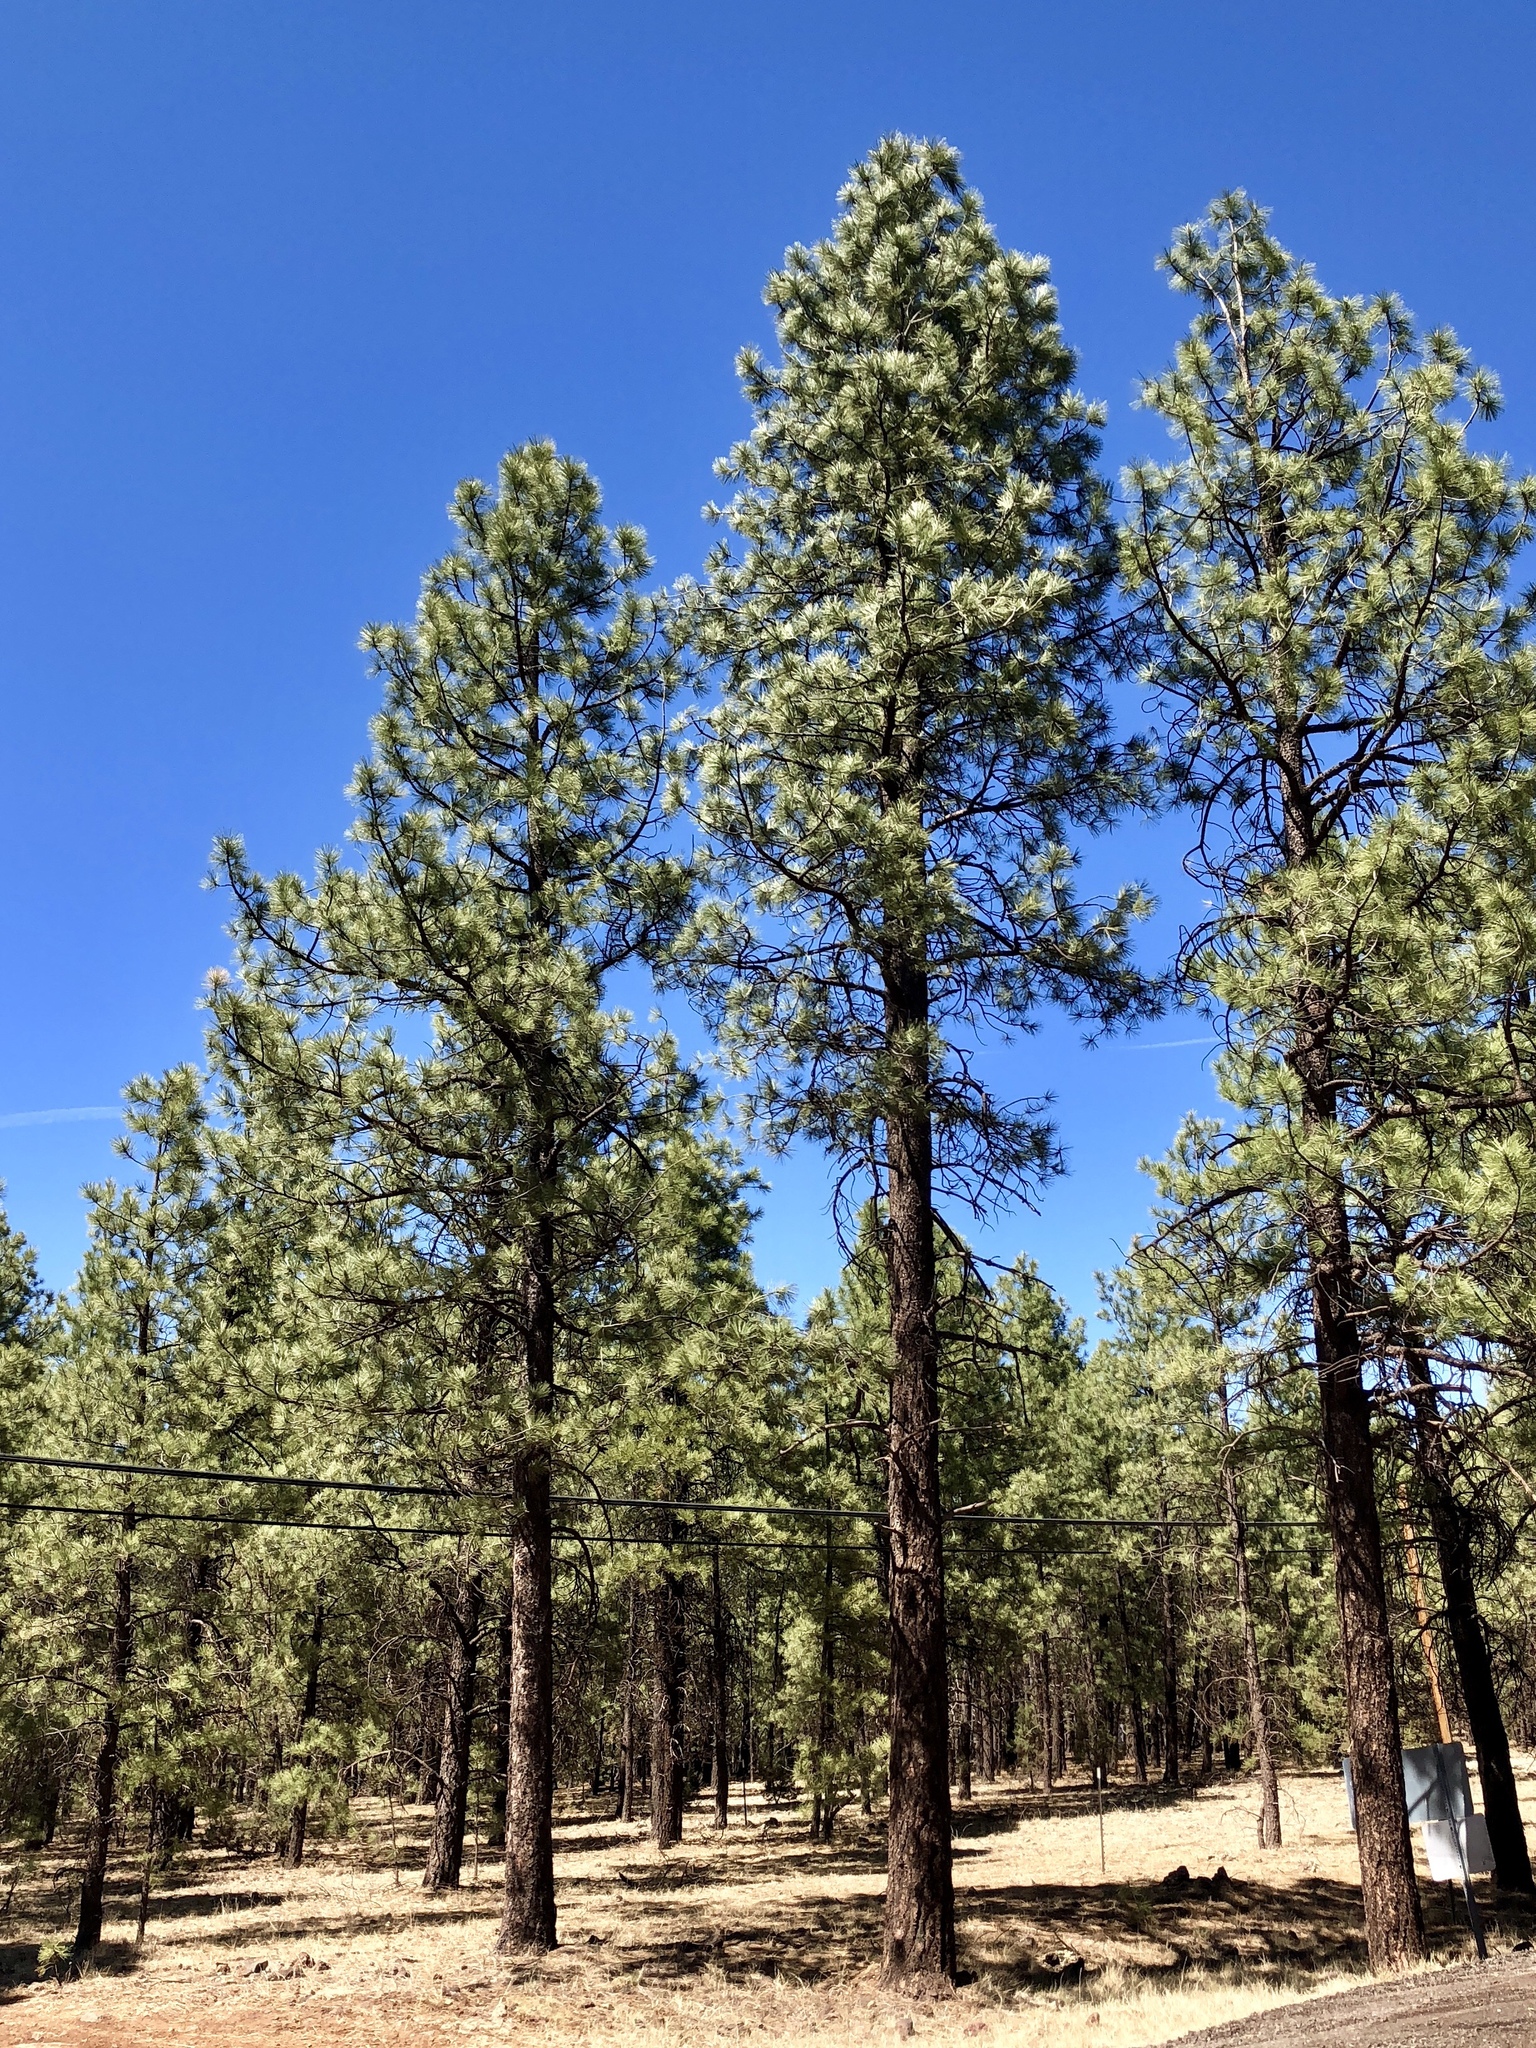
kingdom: Plantae
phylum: Tracheophyta
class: Pinopsida
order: Pinales
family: Pinaceae
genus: Pinus
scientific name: Pinus ponderosa
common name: Western yellow-pine
